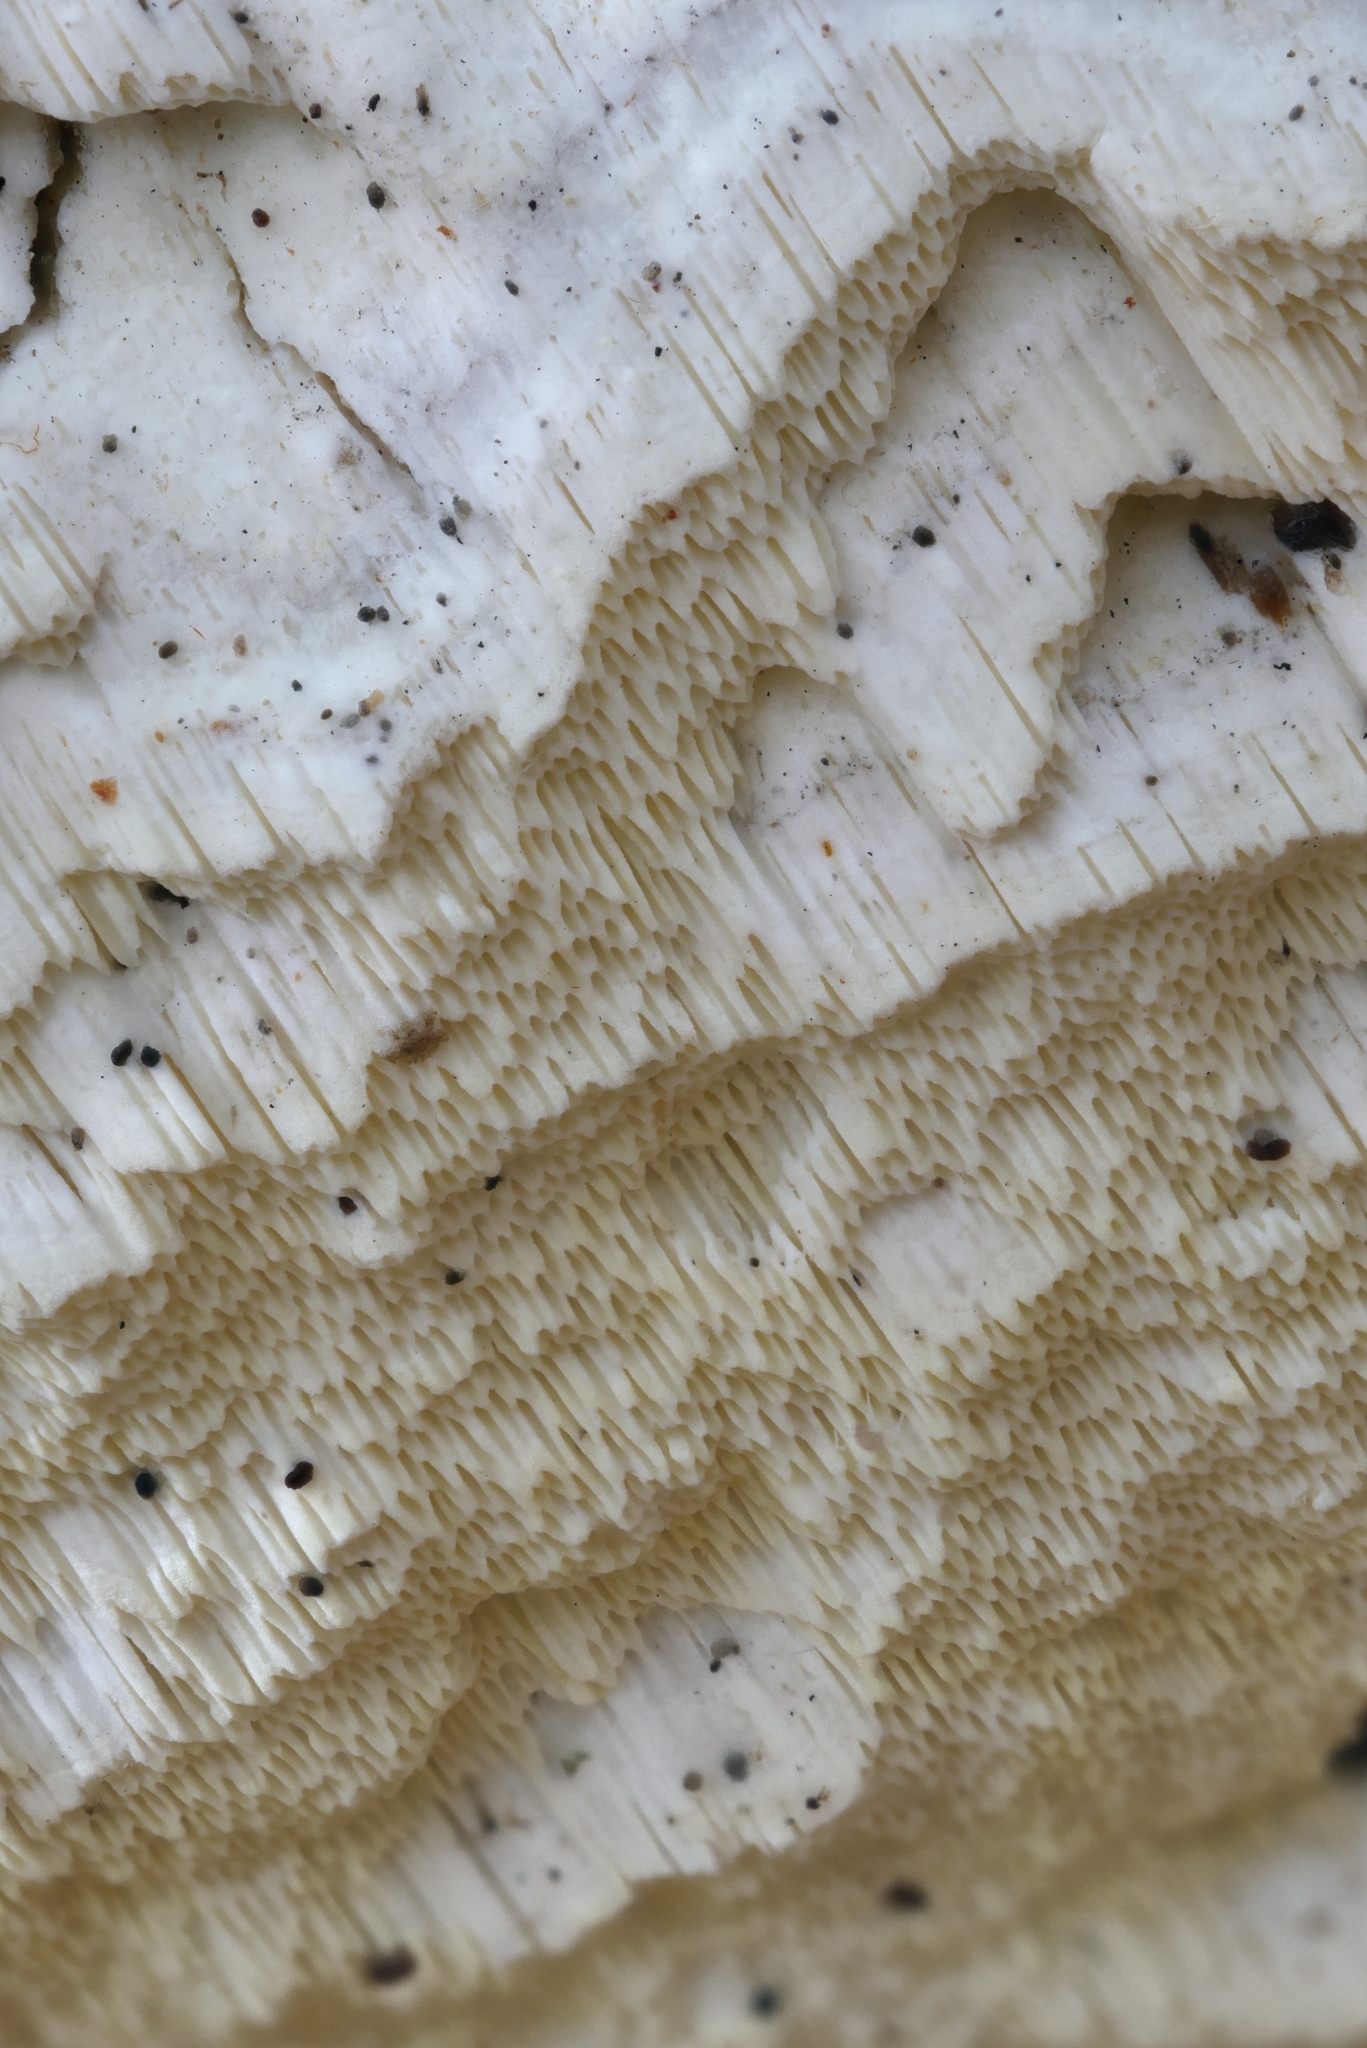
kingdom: Fungi
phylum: Basidiomycota
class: Agaricomycetes
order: Polyporales
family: Fomitopsidaceae
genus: Daedalea
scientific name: Daedalea xantha
